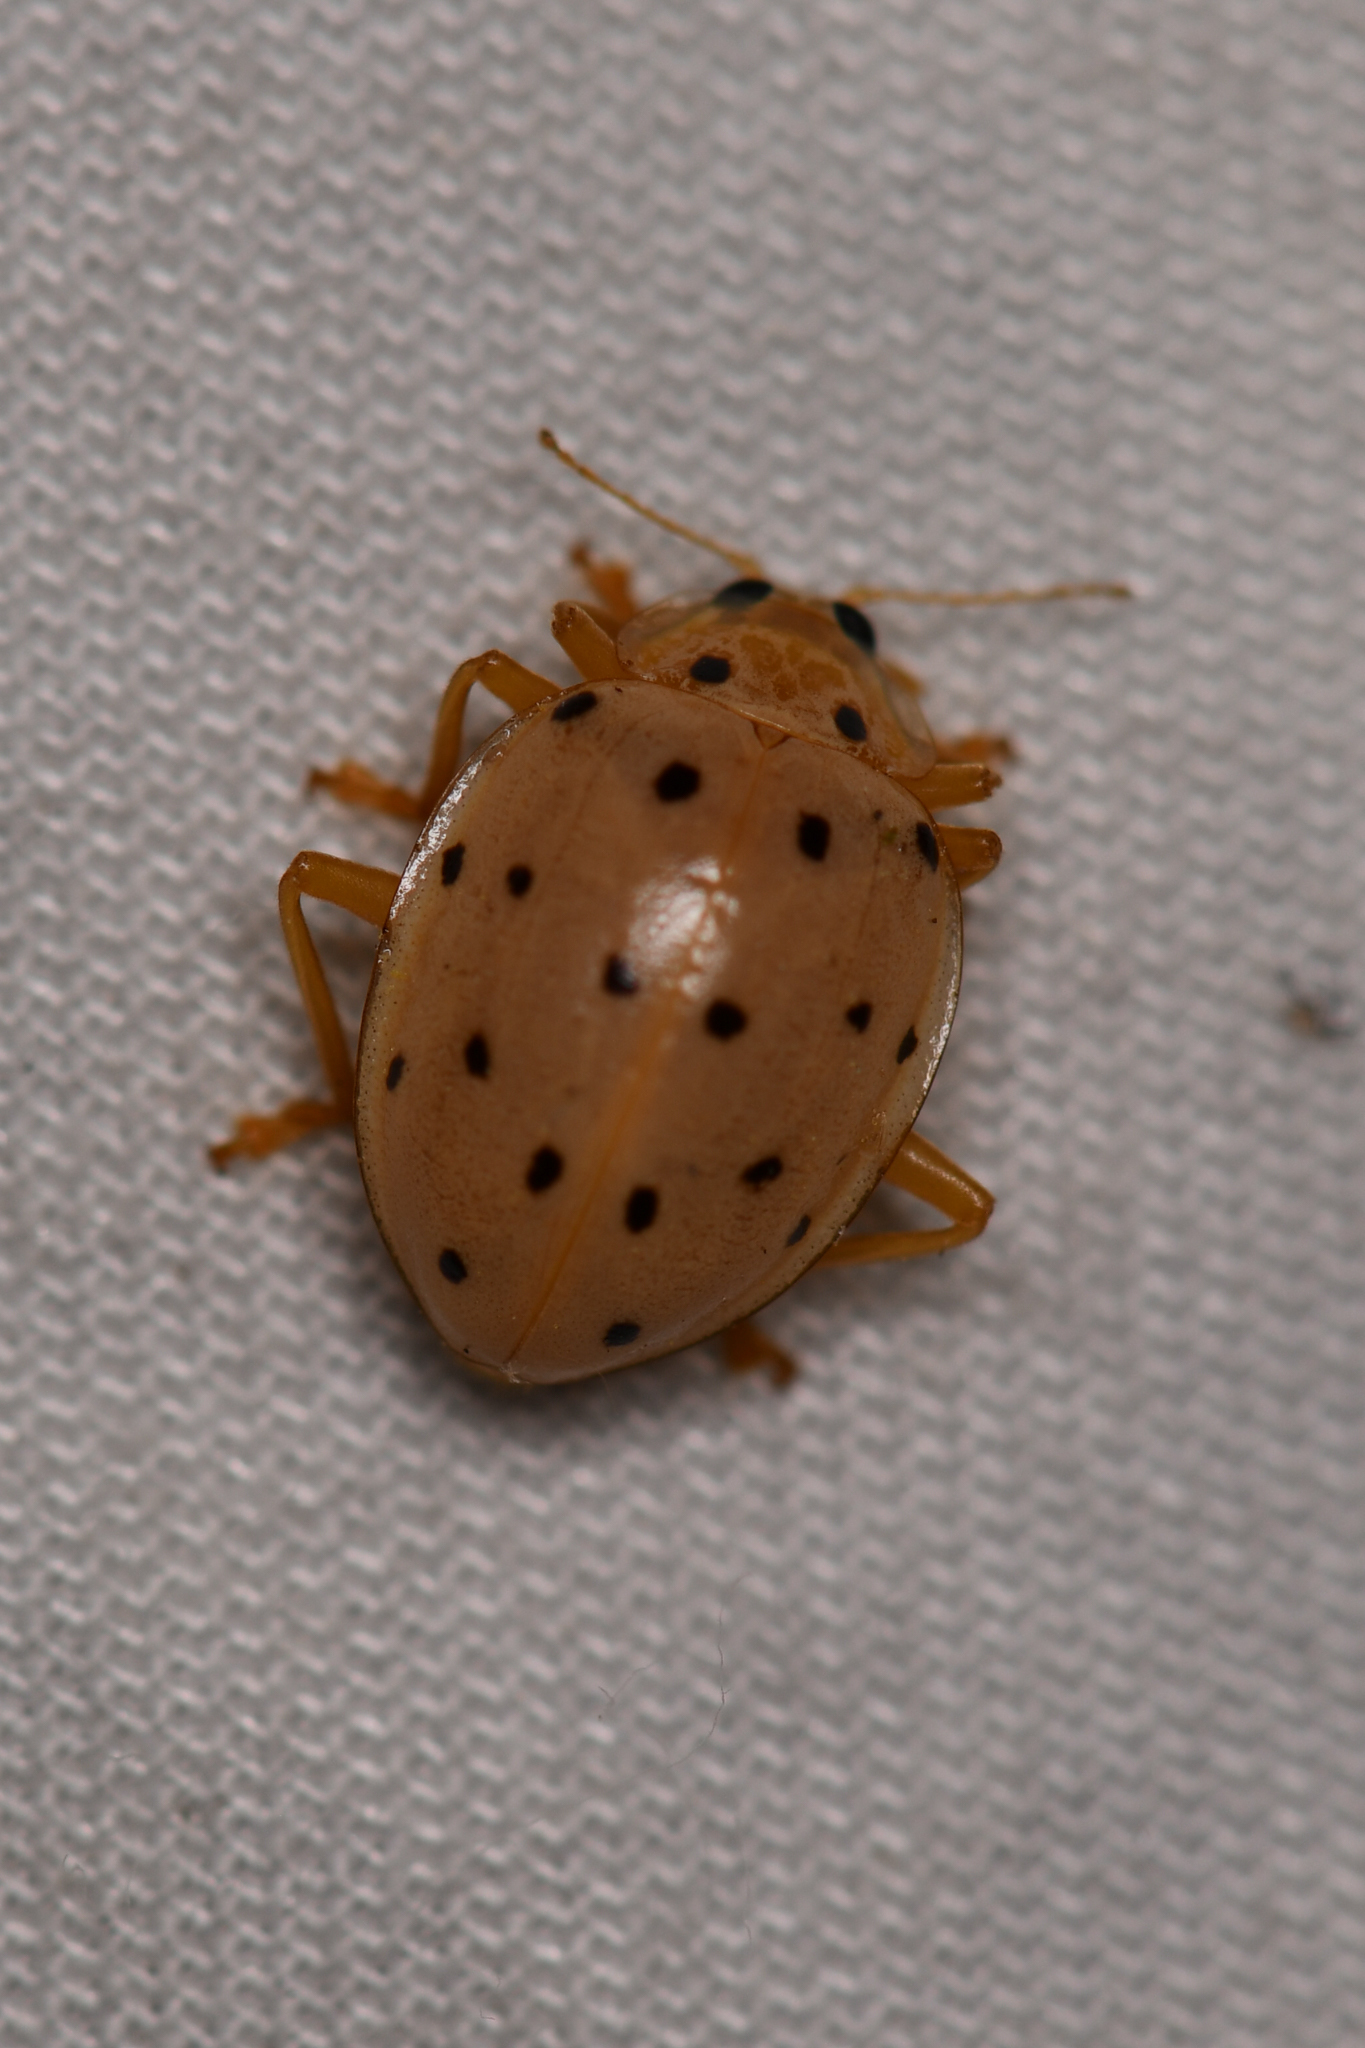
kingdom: Animalia
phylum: Arthropoda
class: Insecta
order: Coleoptera
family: Coccinellidae
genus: Neohalyzia
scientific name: Neohalyzia
